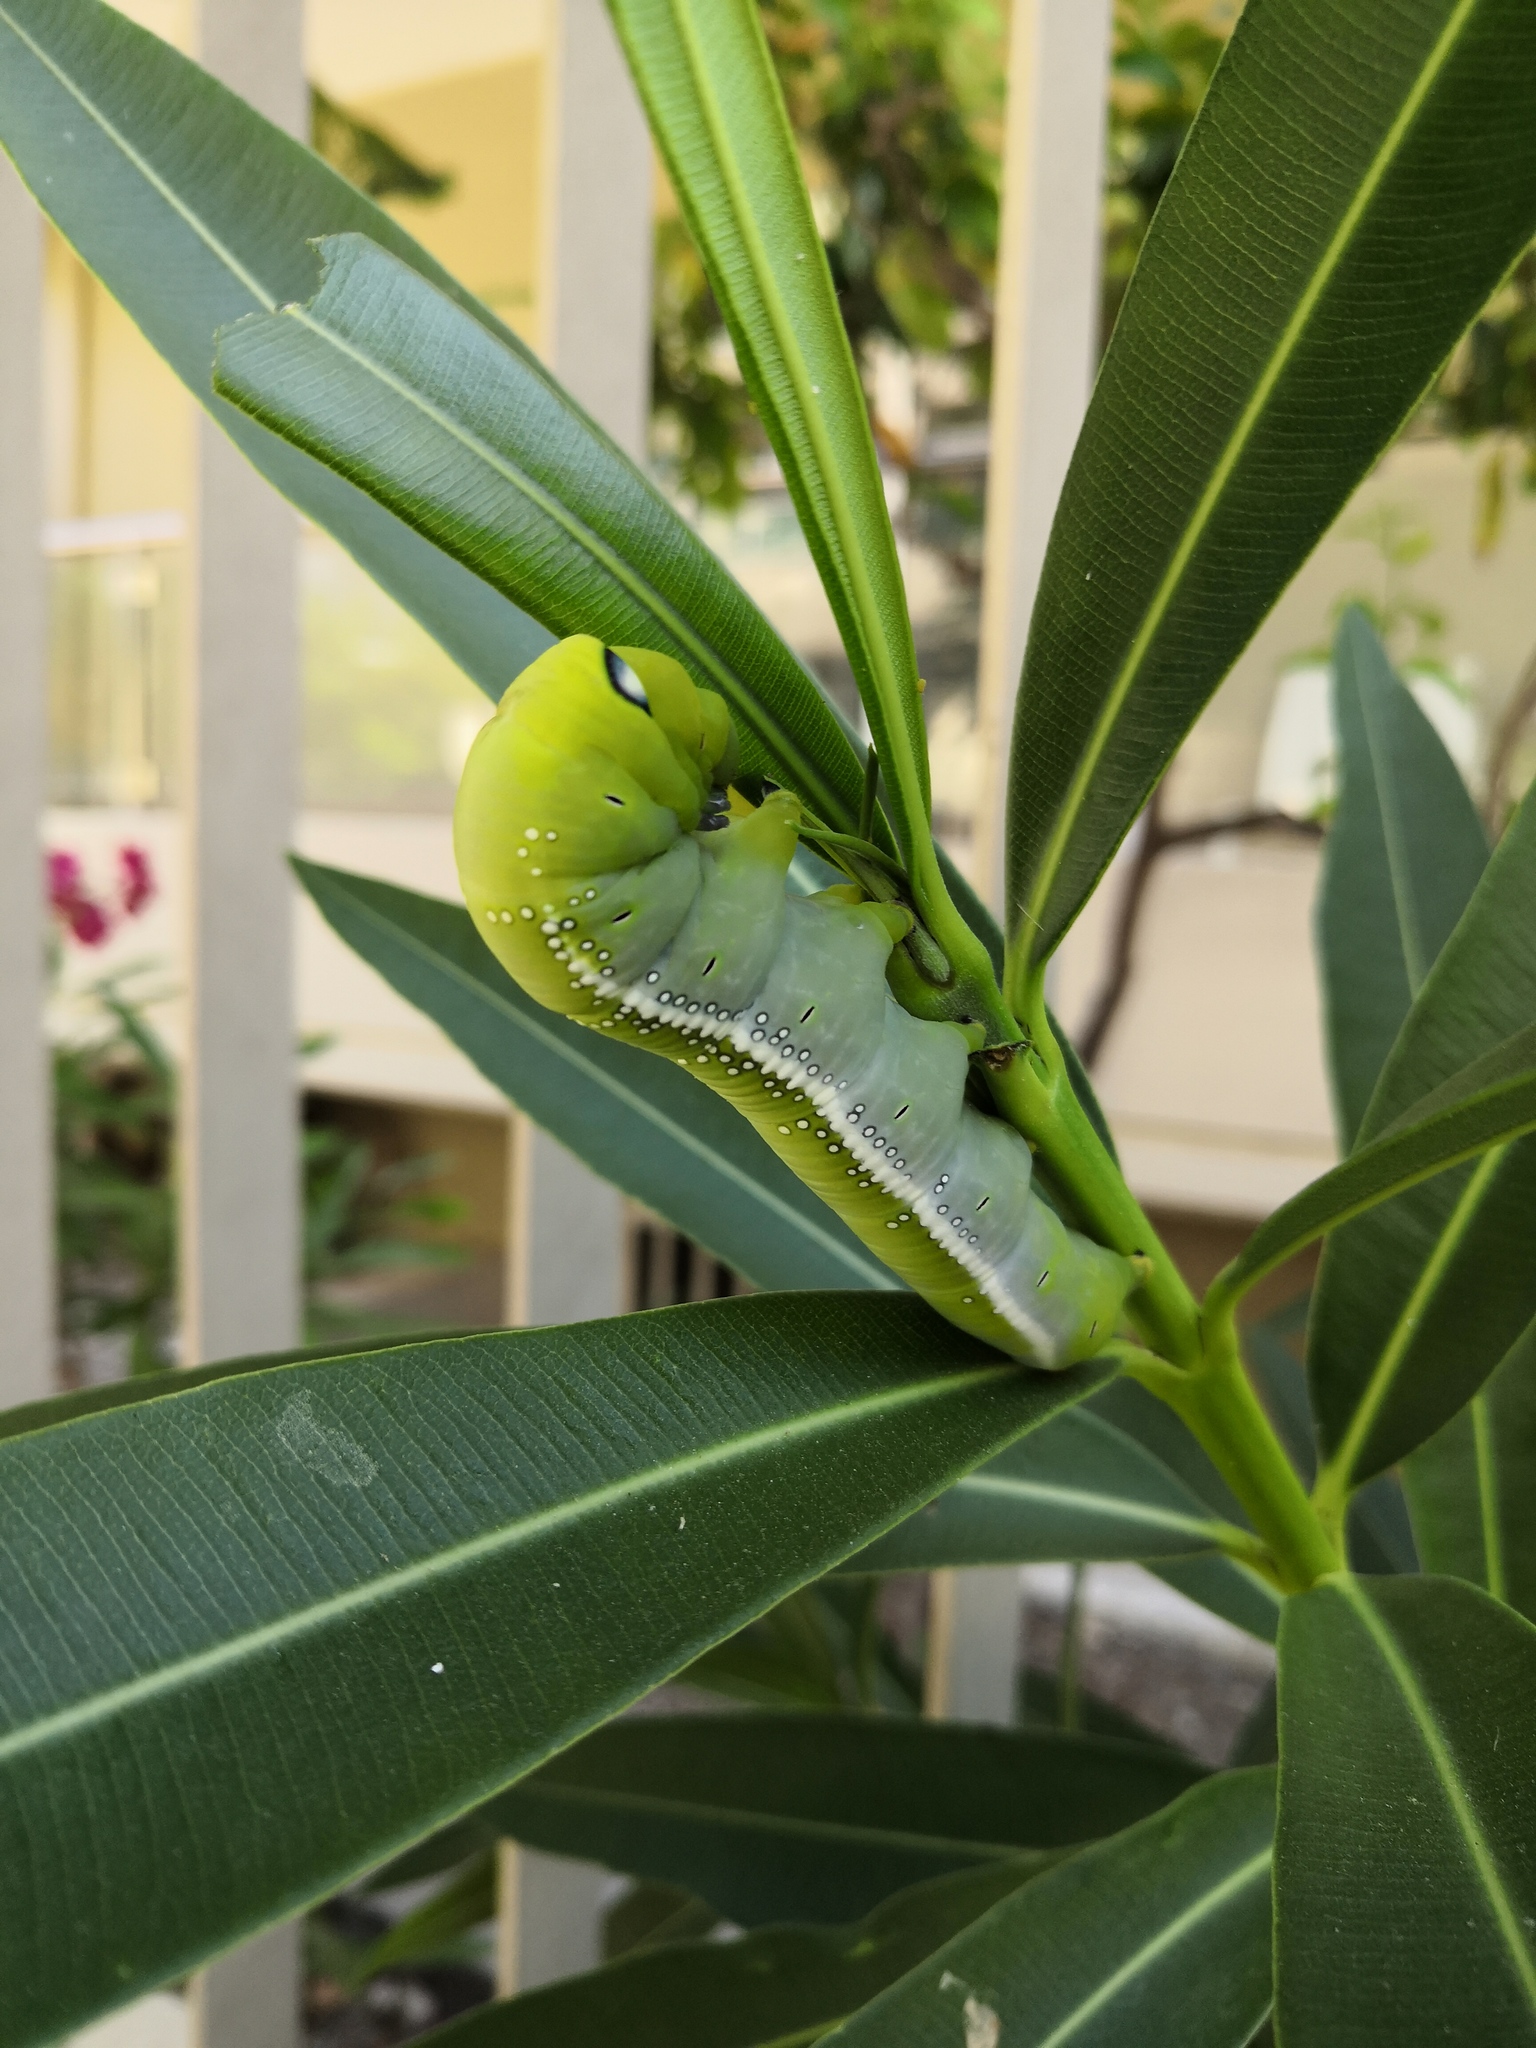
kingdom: Animalia
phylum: Arthropoda
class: Insecta
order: Lepidoptera
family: Sphingidae
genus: Daphnis
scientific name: Daphnis nerii
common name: Oleander hawk-moth
